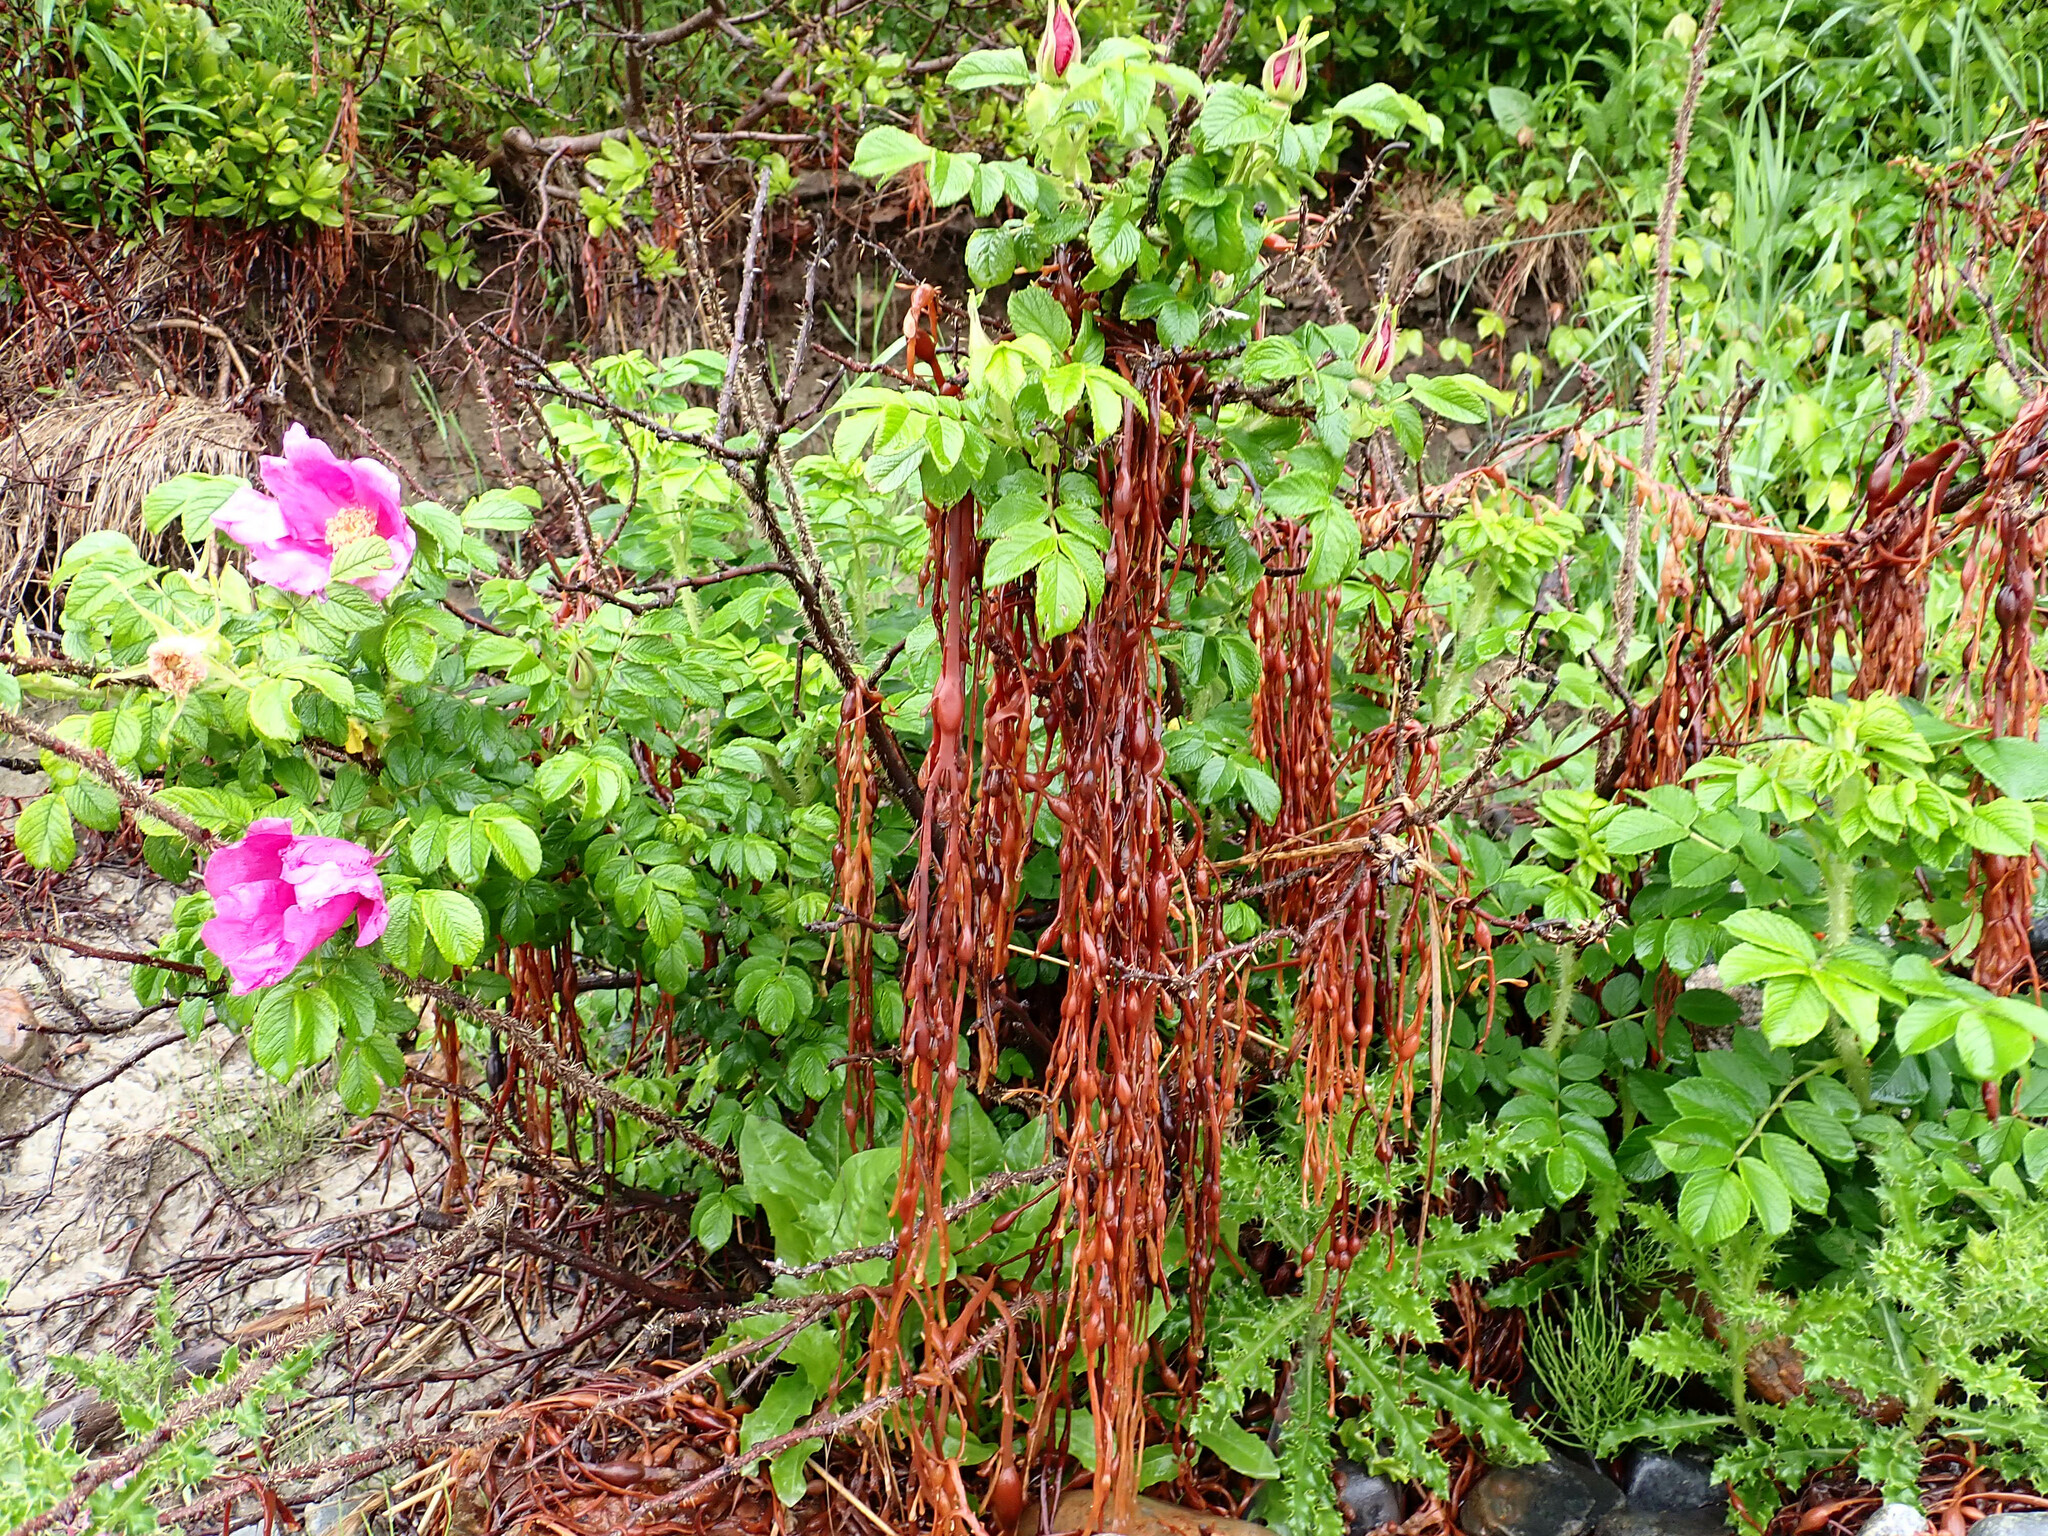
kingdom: Plantae
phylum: Tracheophyta
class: Magnoliopsida
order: Rosales
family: Rosaceae
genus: Rosa
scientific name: Rosa rugosa
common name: Japanese rose
